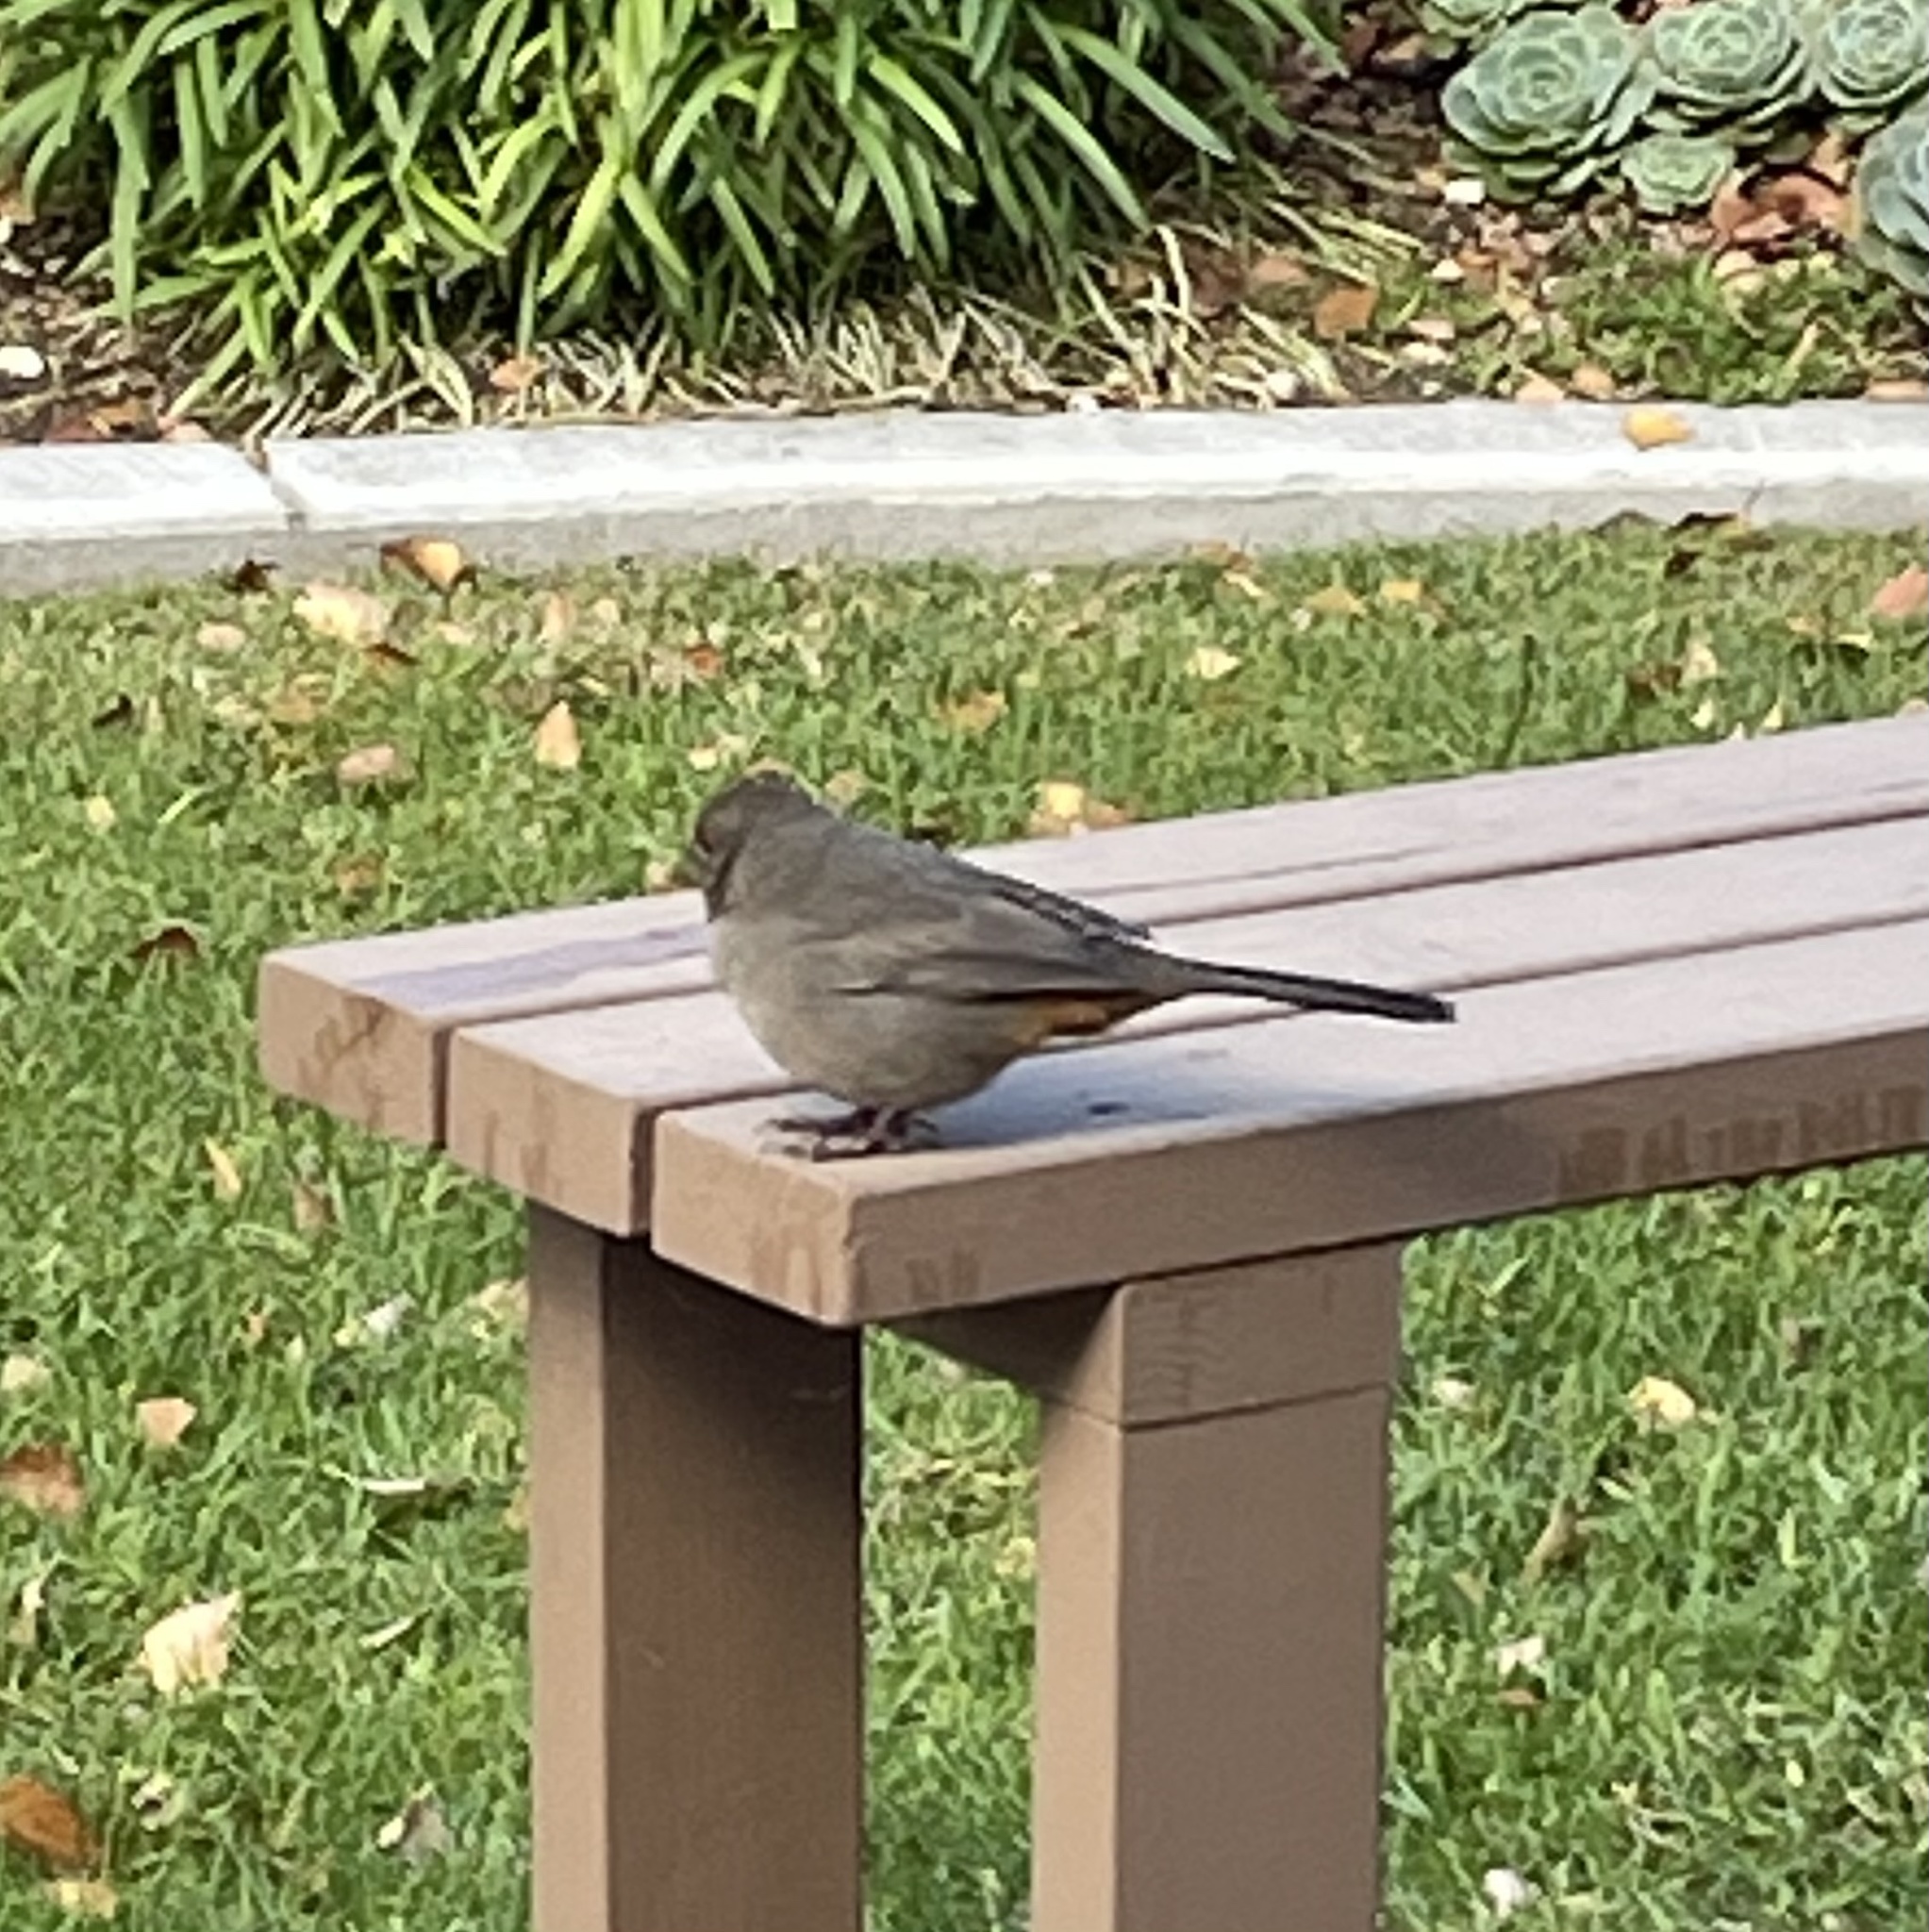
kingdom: Animalia
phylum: Chordata
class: Aves
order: Passeriformes
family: Passerellidae
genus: Melozone
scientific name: Melozone crissalis
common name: California towhee
